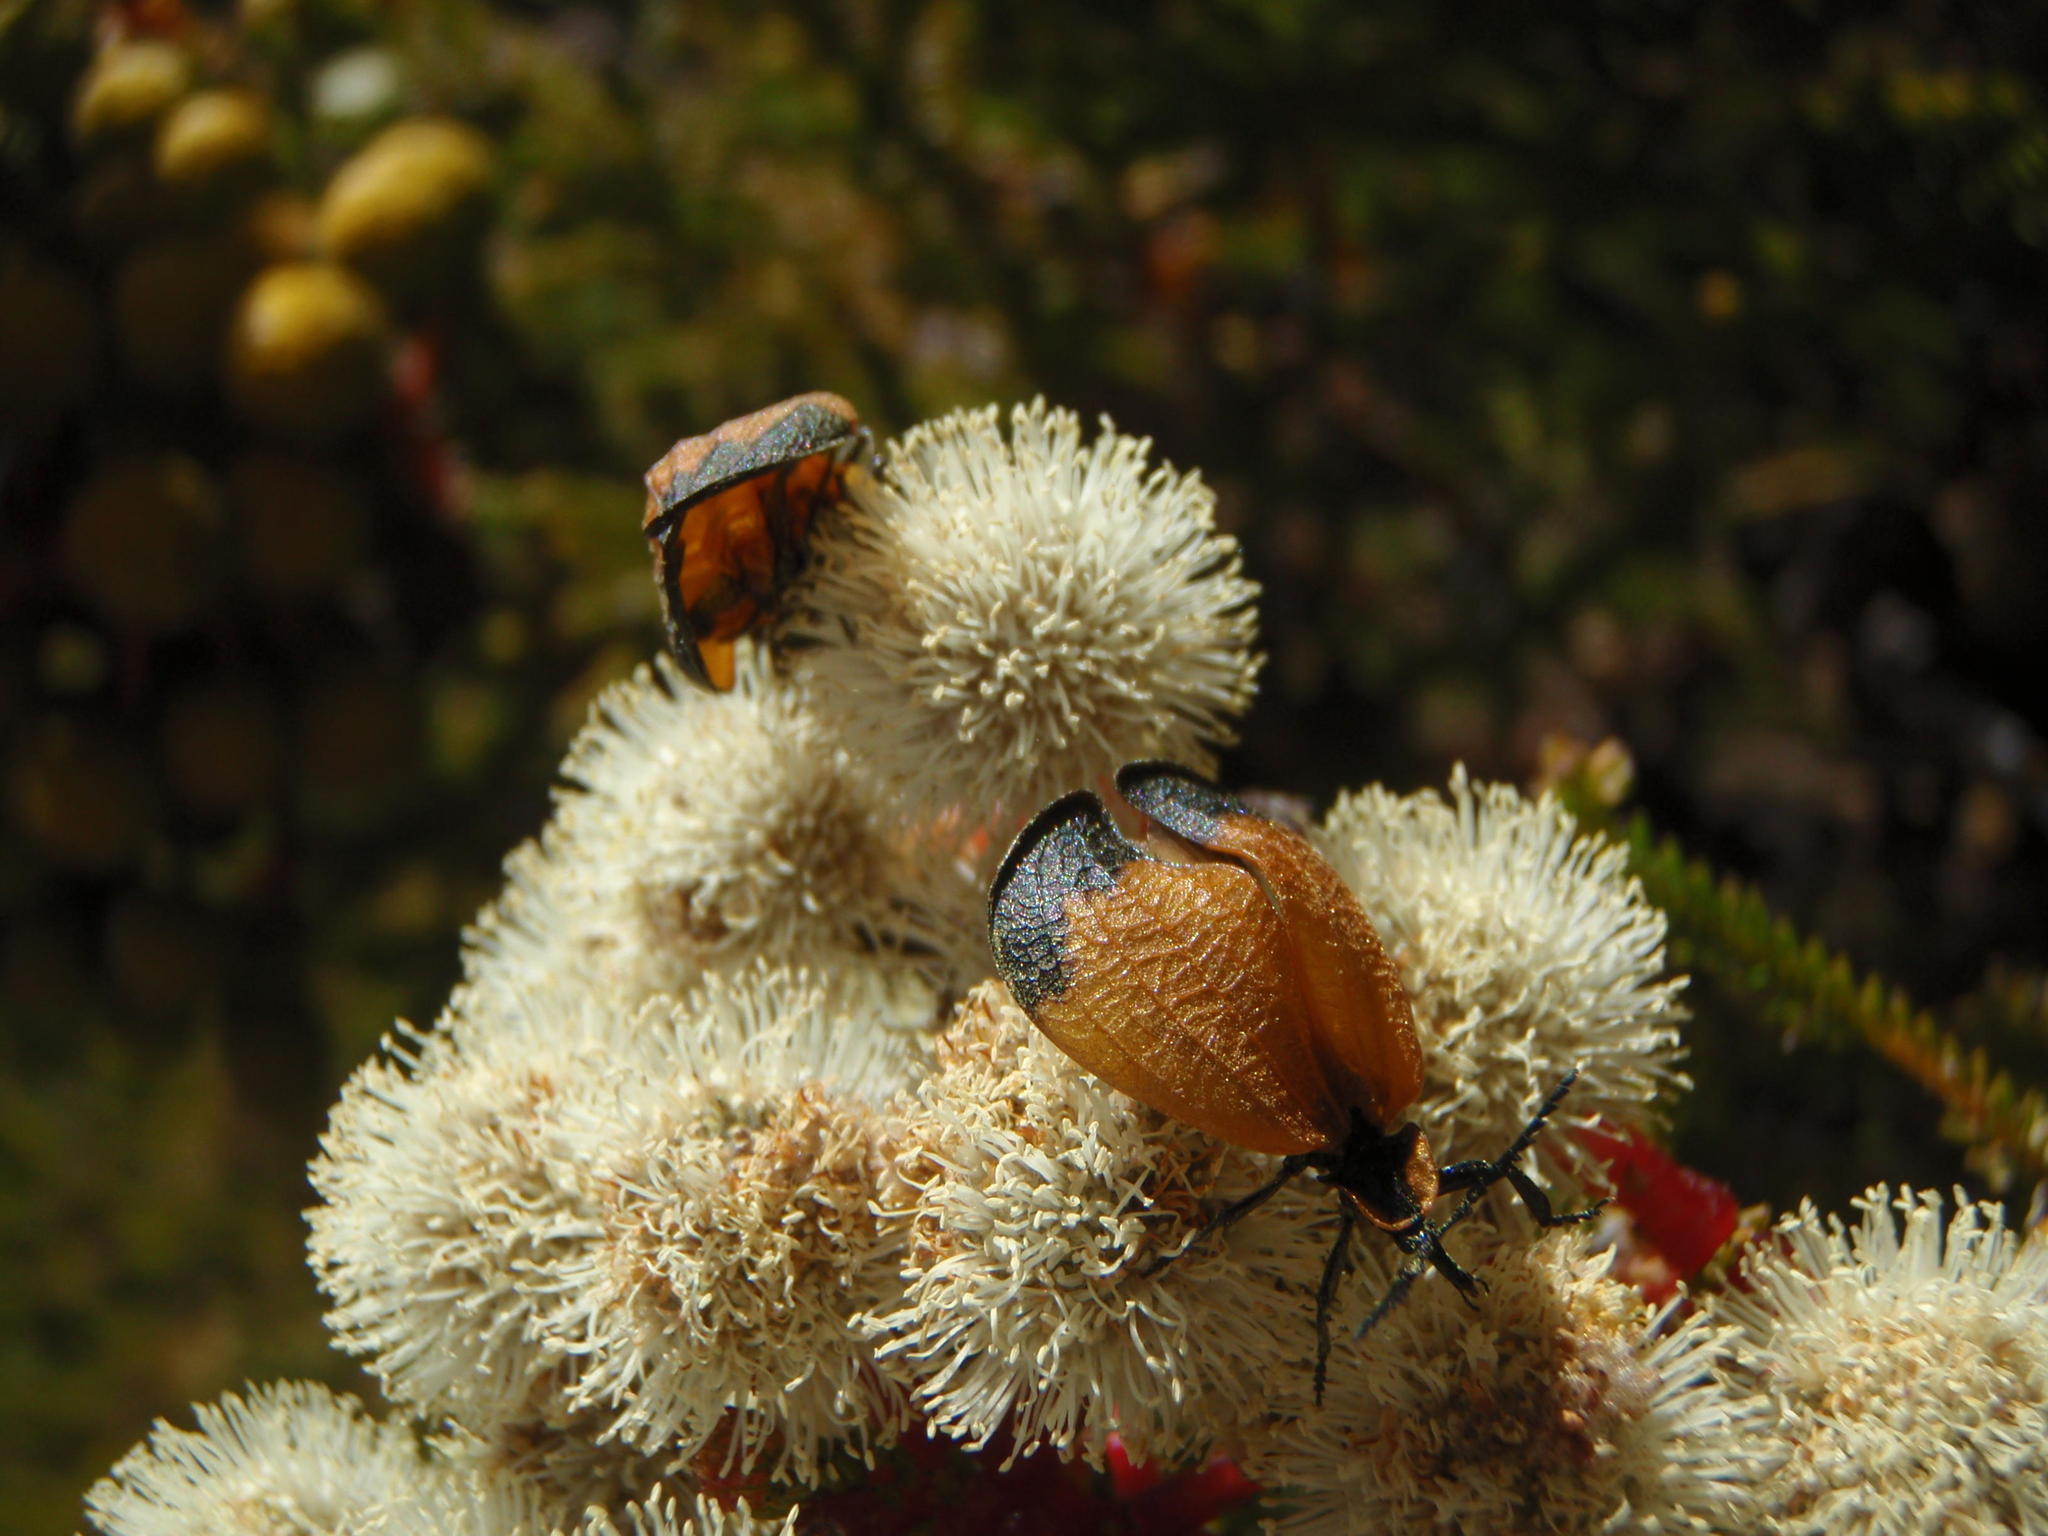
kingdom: Animalia
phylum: Arthropoda
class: Insecta
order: Coleoptera
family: Lycidae
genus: Lycus
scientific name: Lycus
